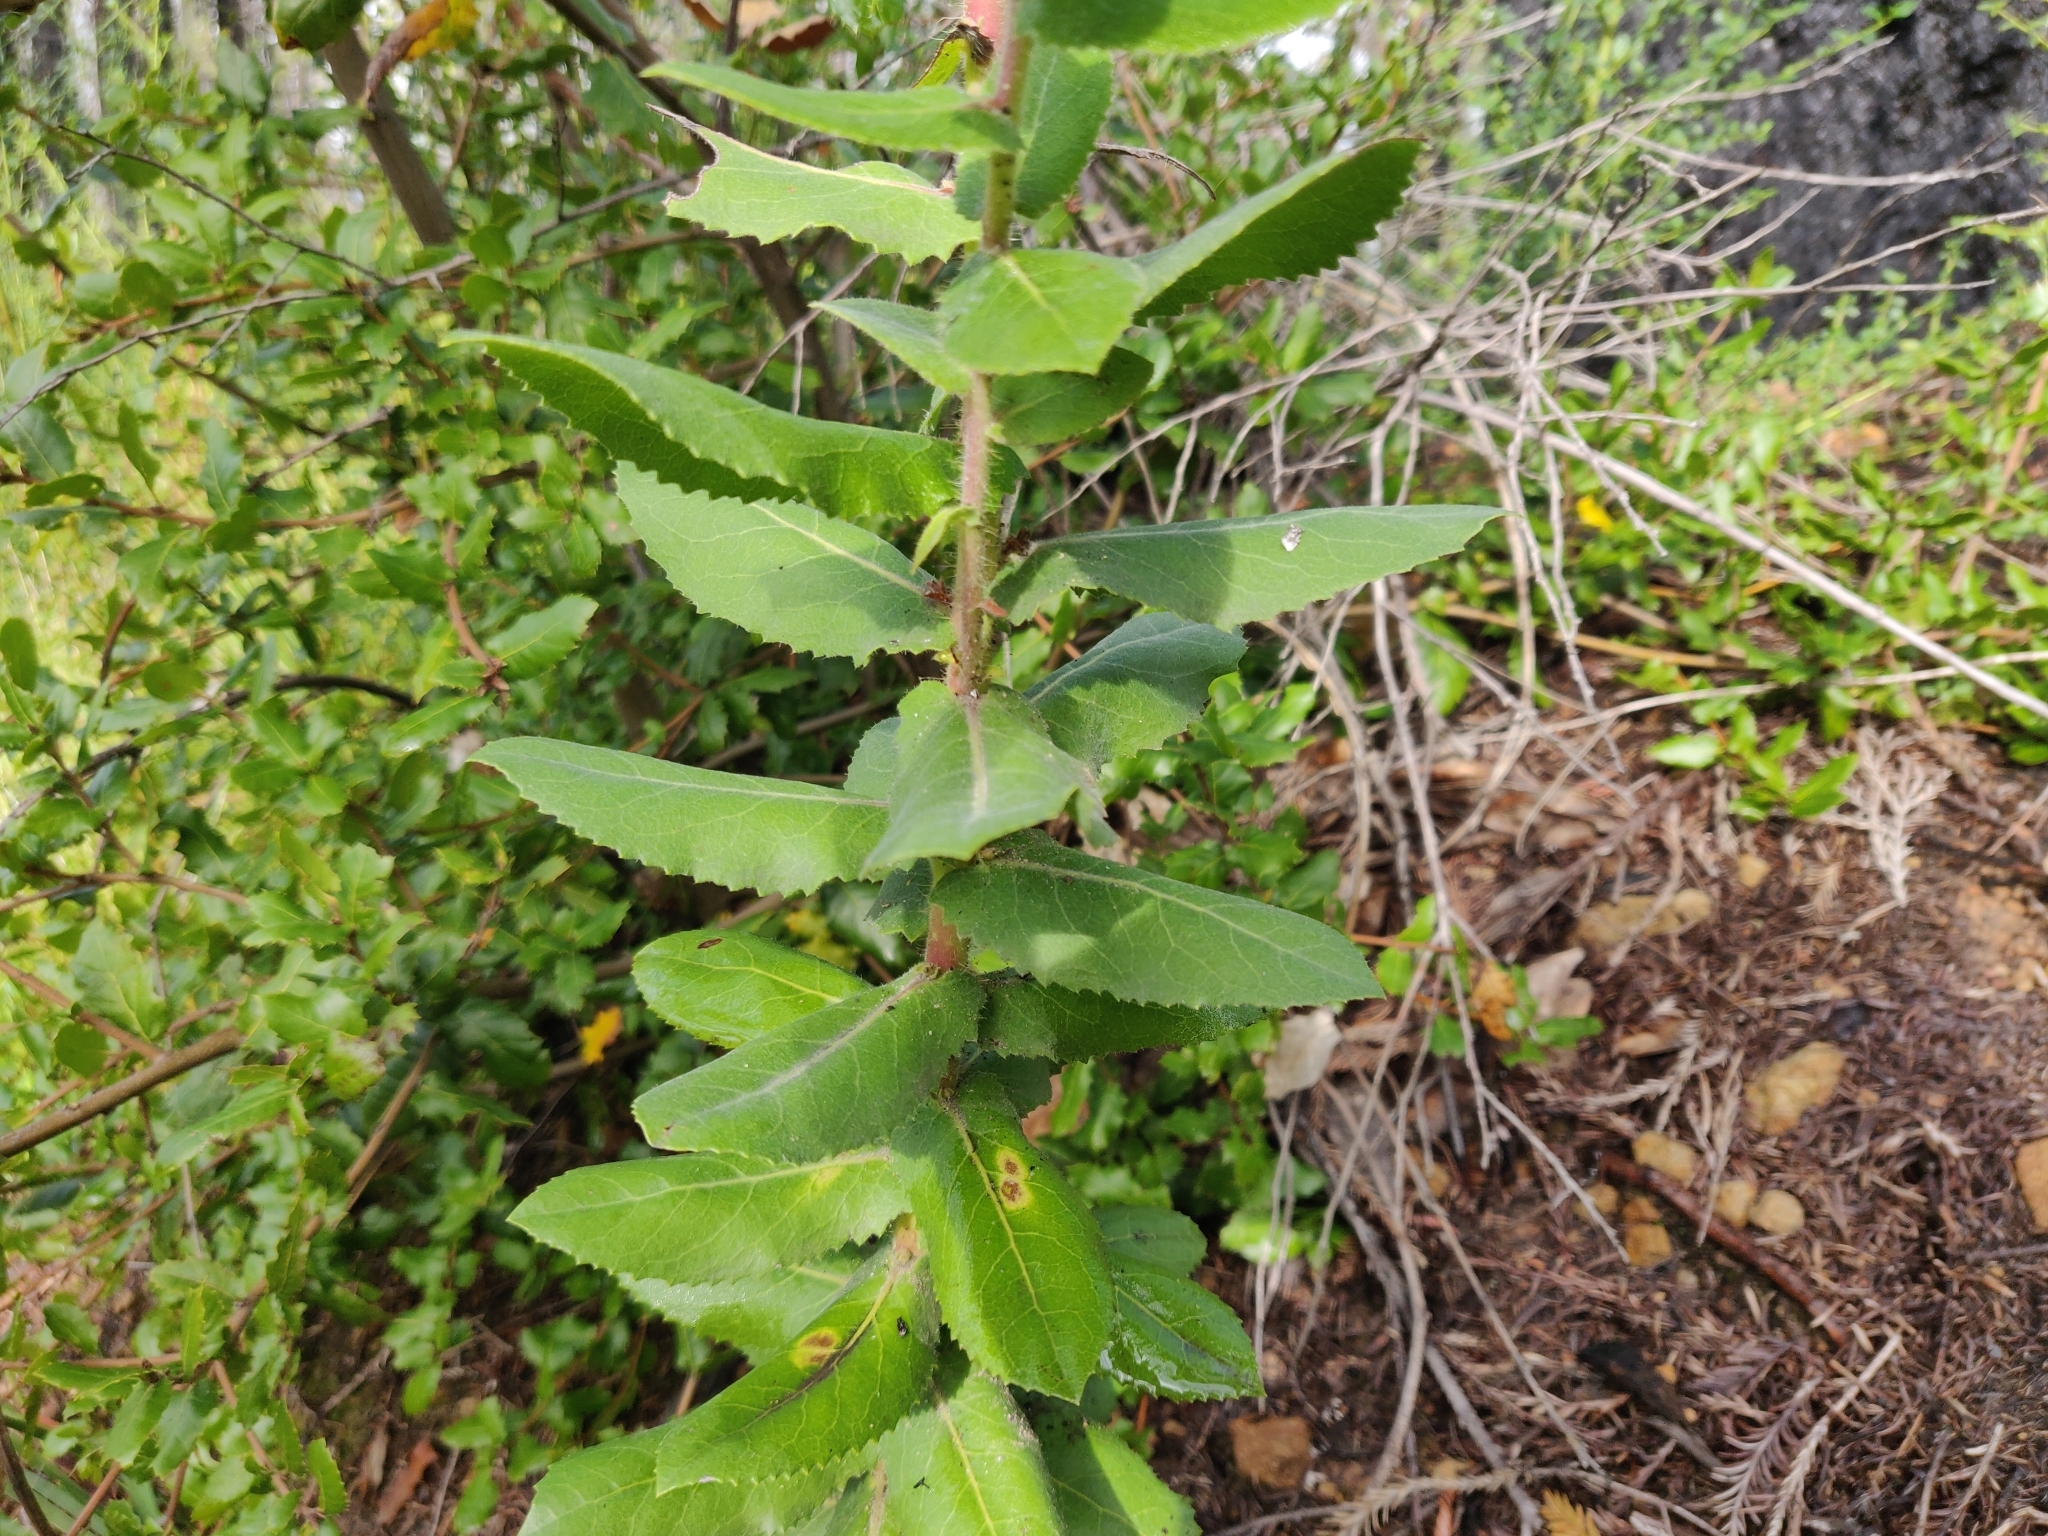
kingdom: Plantae
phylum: Tracheophyta
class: Magnoliopsida
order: Ericales
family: Ericaceae
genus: Arctostaphylos
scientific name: Arctostaphylos andersonii
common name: Santa cruz manzanita
